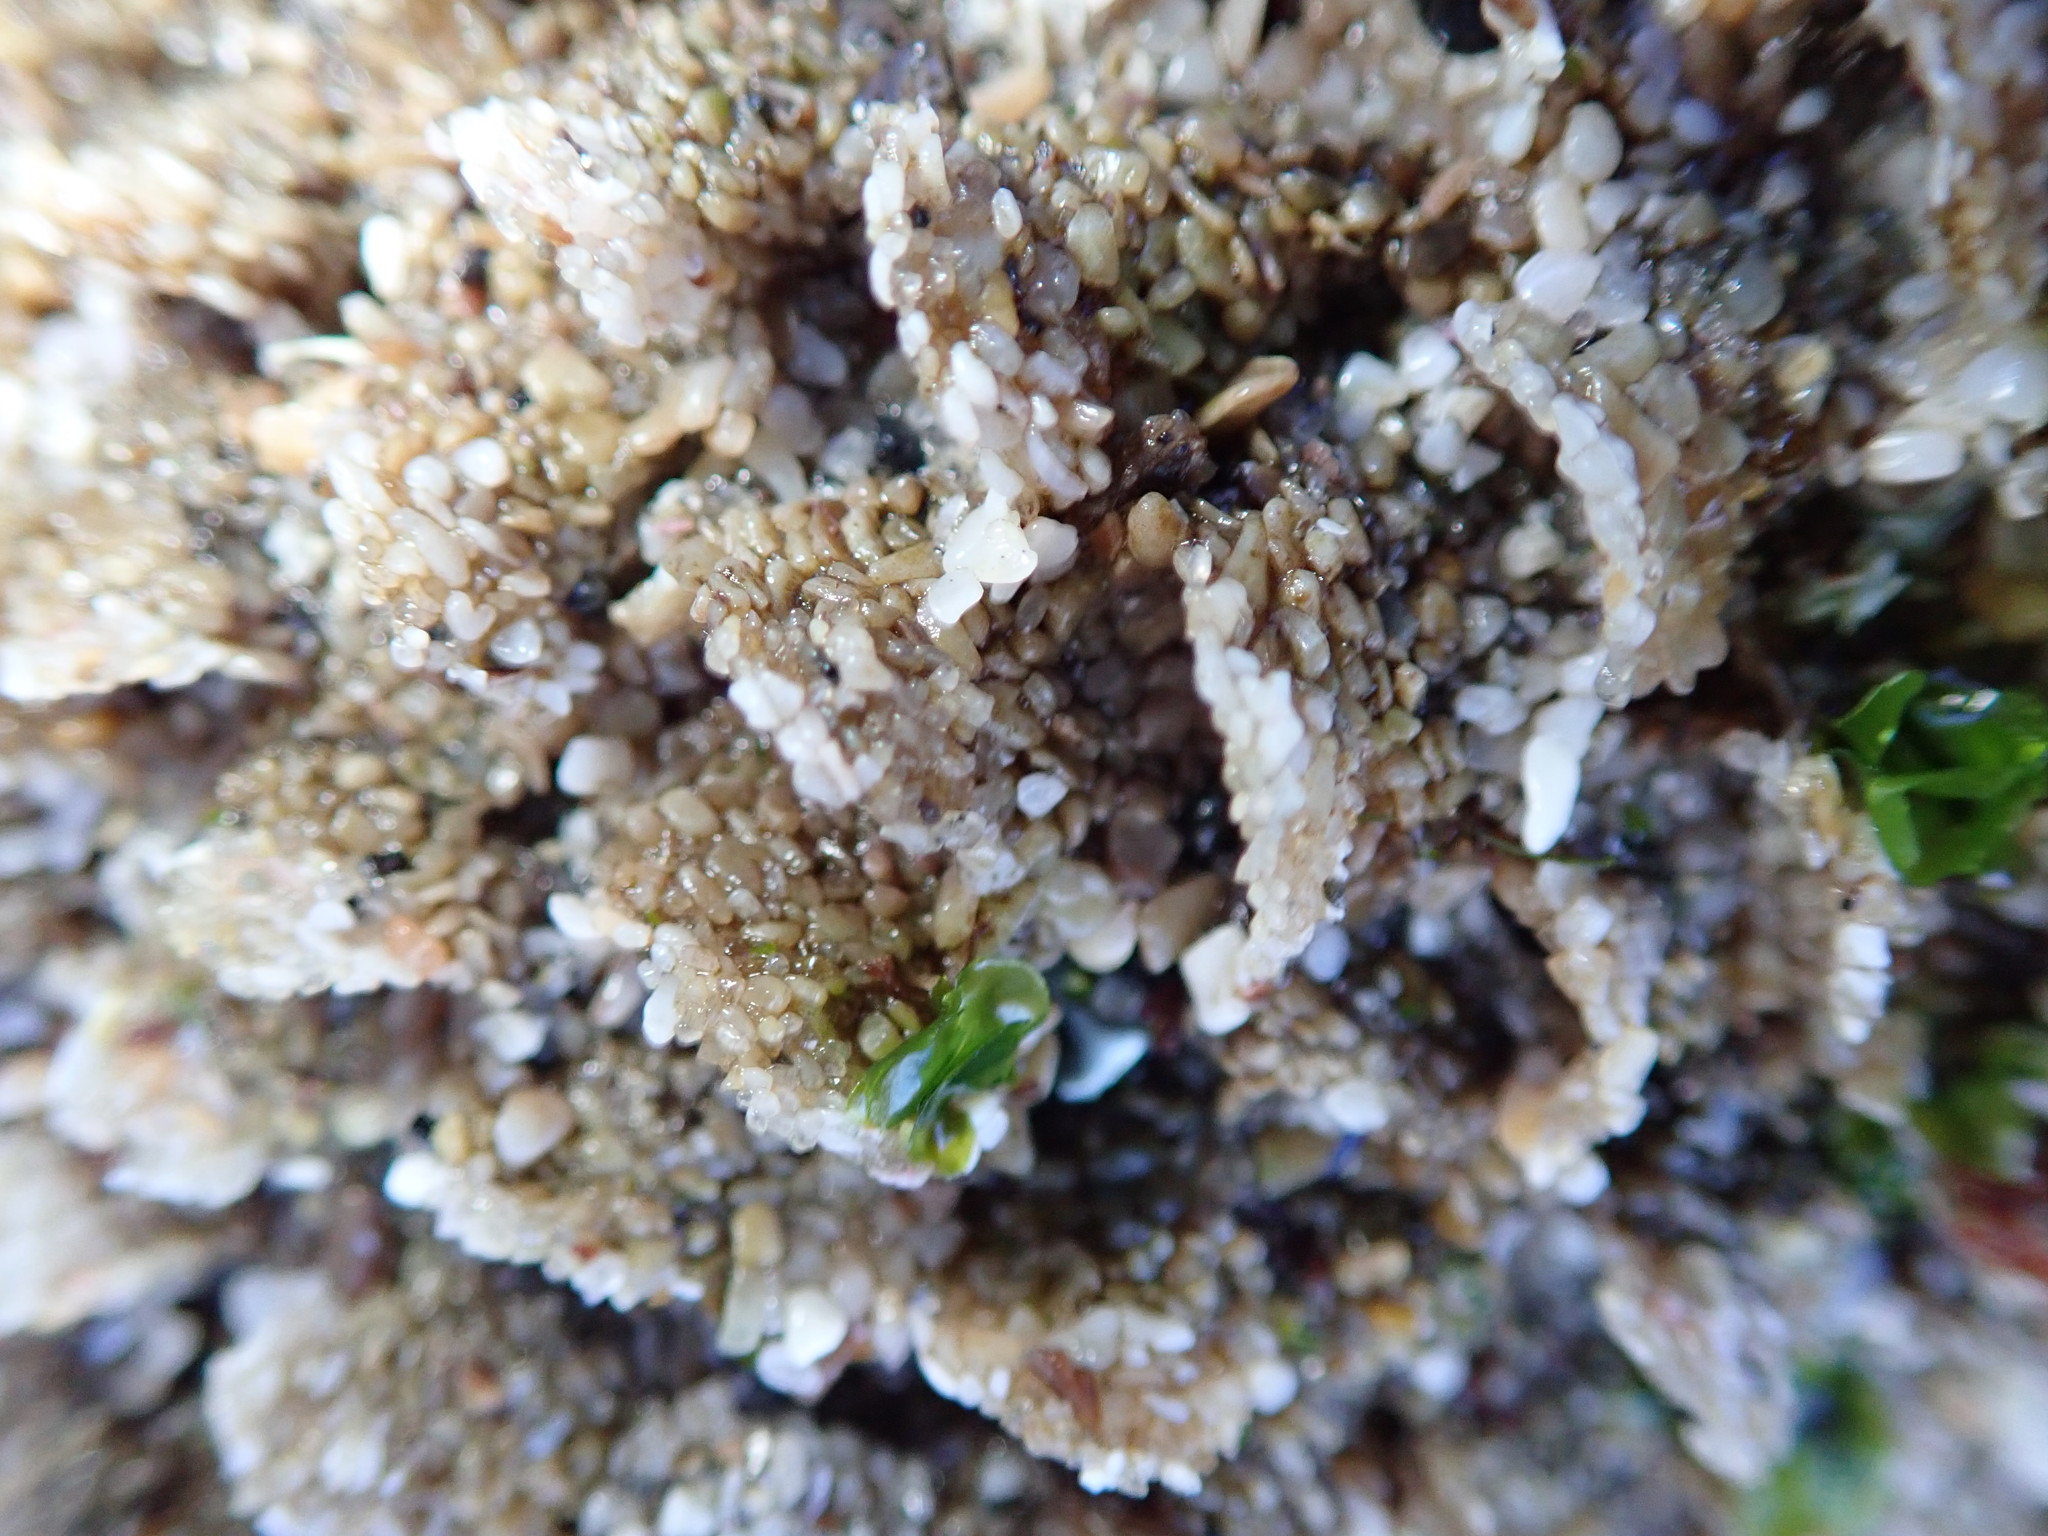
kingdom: Animalia
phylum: Annelida
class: Polychaeta
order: Sabellida
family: Sabellariidae
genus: Phragmatopoma
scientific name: Phragmatopoma californica
